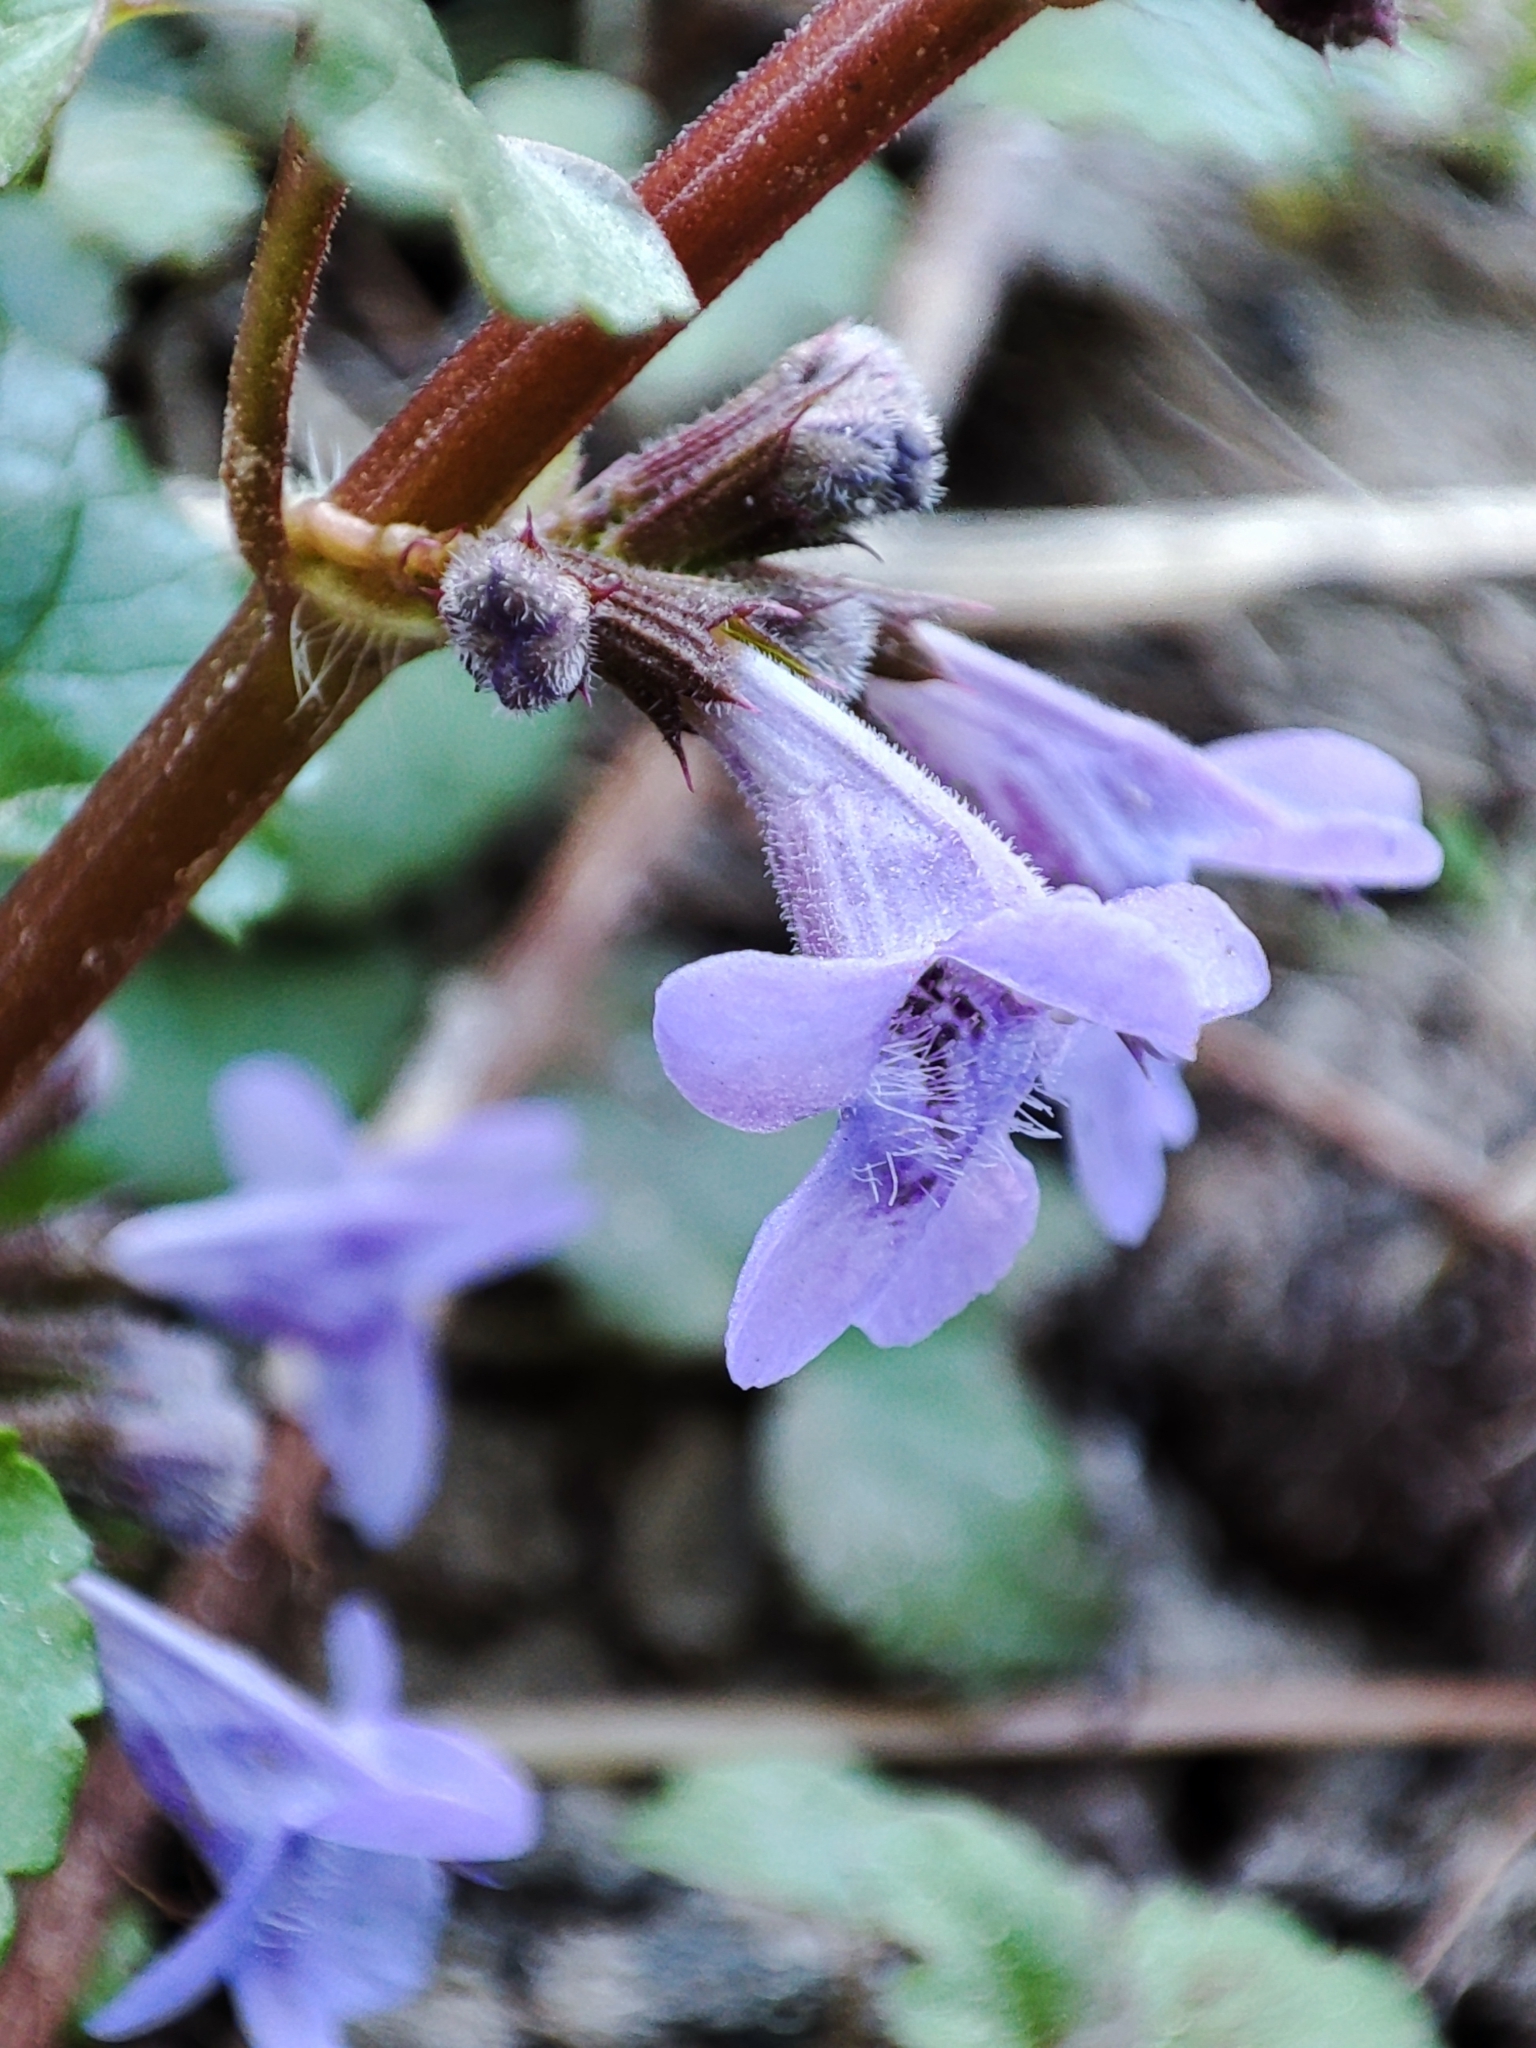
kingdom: Plantae
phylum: Tracheophyta
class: Magnoliopsida
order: Lamiales
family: Lamiaceae
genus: Glechoma
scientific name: Glechoma hederacea
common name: Ground ivy
